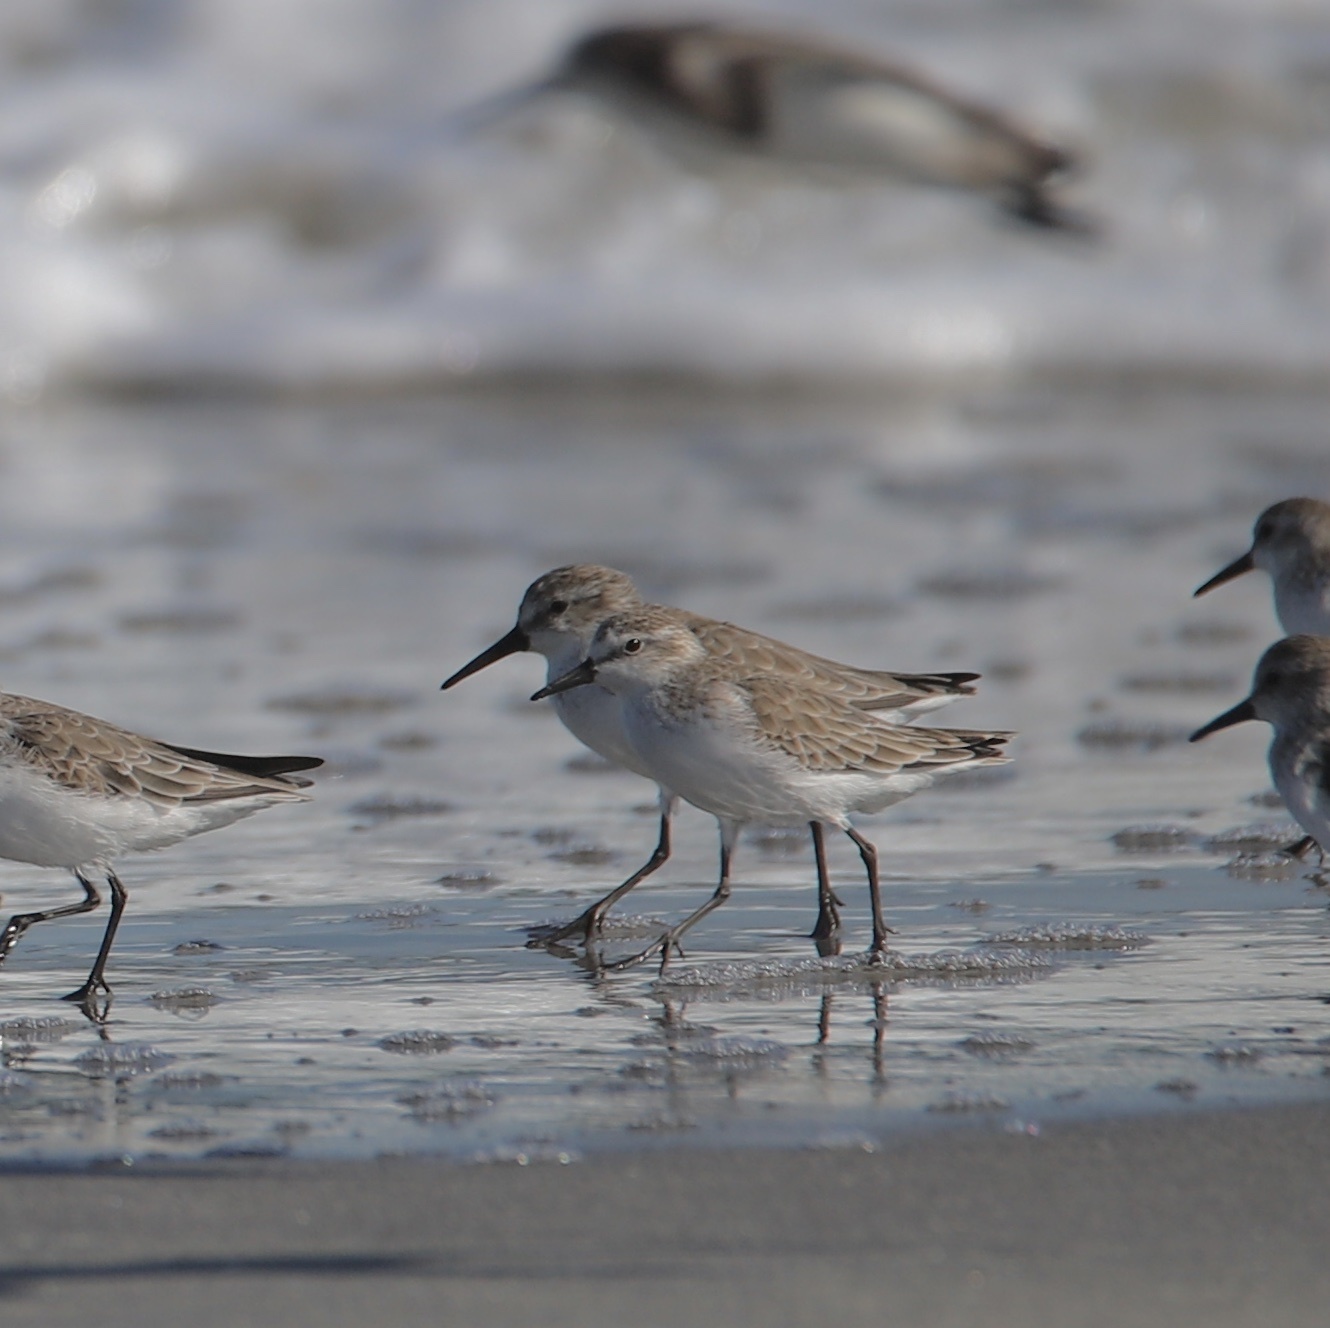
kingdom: Animalia
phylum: Chordata
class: Aves
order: Charadriiformes
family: Scolopacidae
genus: Calidris
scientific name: Calidris pusilla
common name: Semipalmated sandpiper
